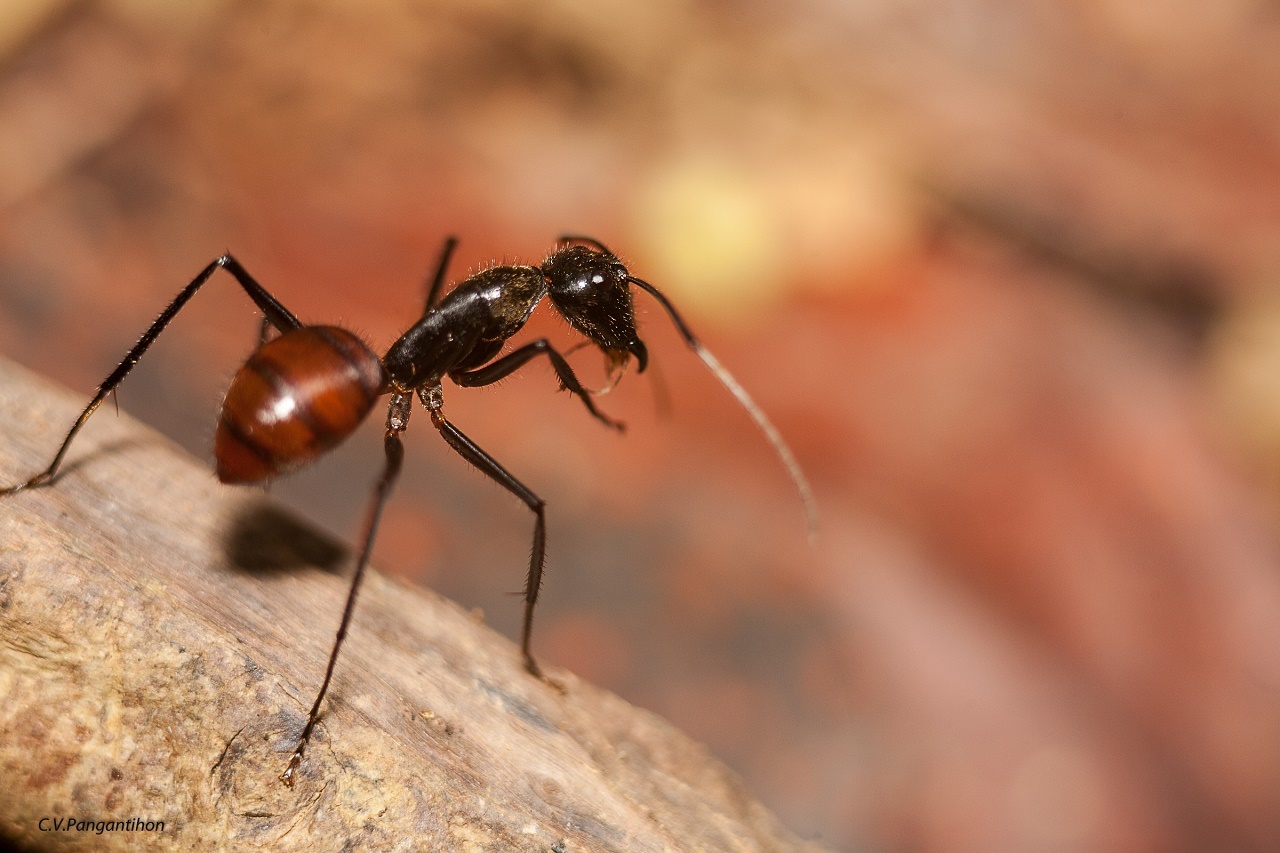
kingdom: Animalia
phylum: Arthropoda
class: Insecta
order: Hymenoptera
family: Formicidae
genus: Dinomyrmex
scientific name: Dinomyrmex
